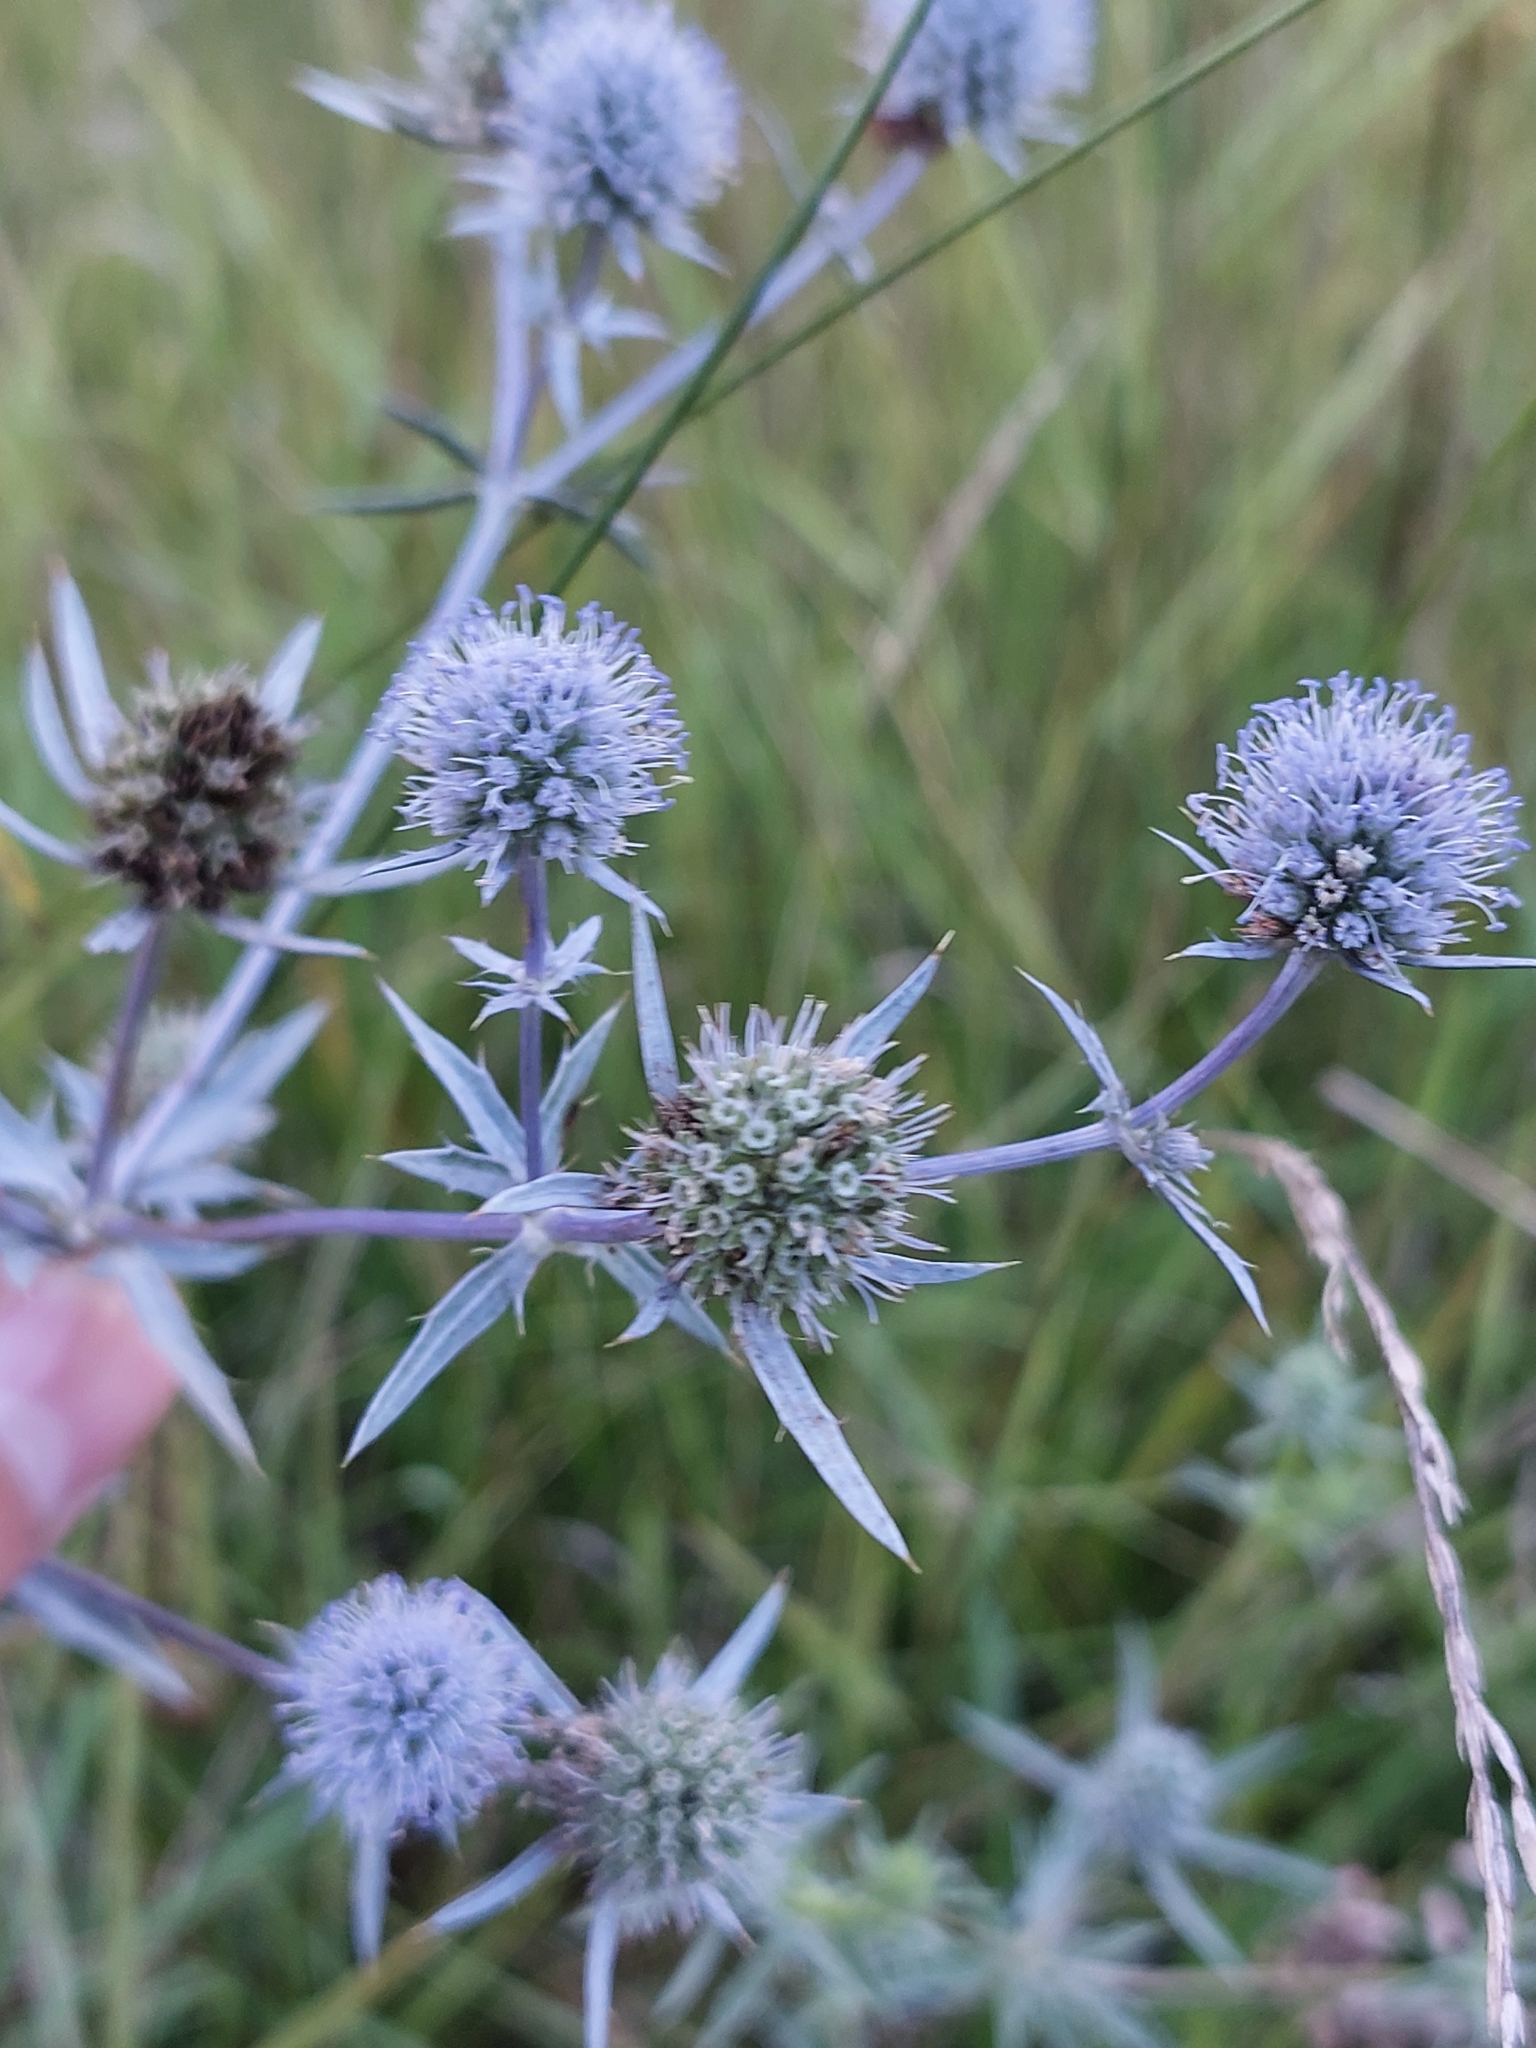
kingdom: Plantae
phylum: Tracheophyta
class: Magnoliopsida
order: Apiales
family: Apiaceae
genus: Eryngium
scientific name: Eryngium planum
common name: Blue eryngo
